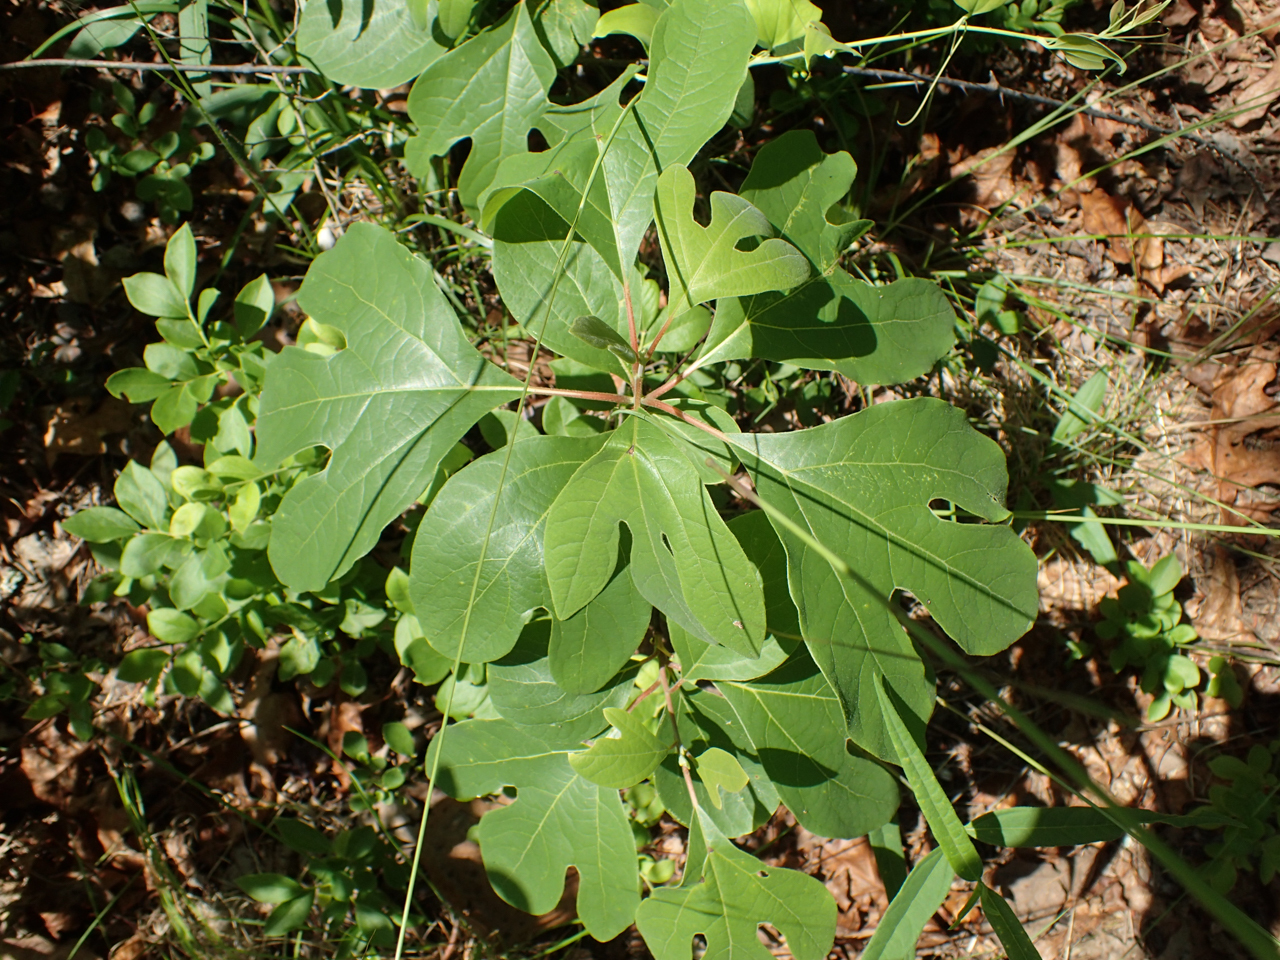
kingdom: Plantae
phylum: Tracheophyta
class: Magnoliopsida
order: Laurales
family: Lauraceae
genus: Sassafras
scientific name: Sassafras albidum
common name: Sassafras
